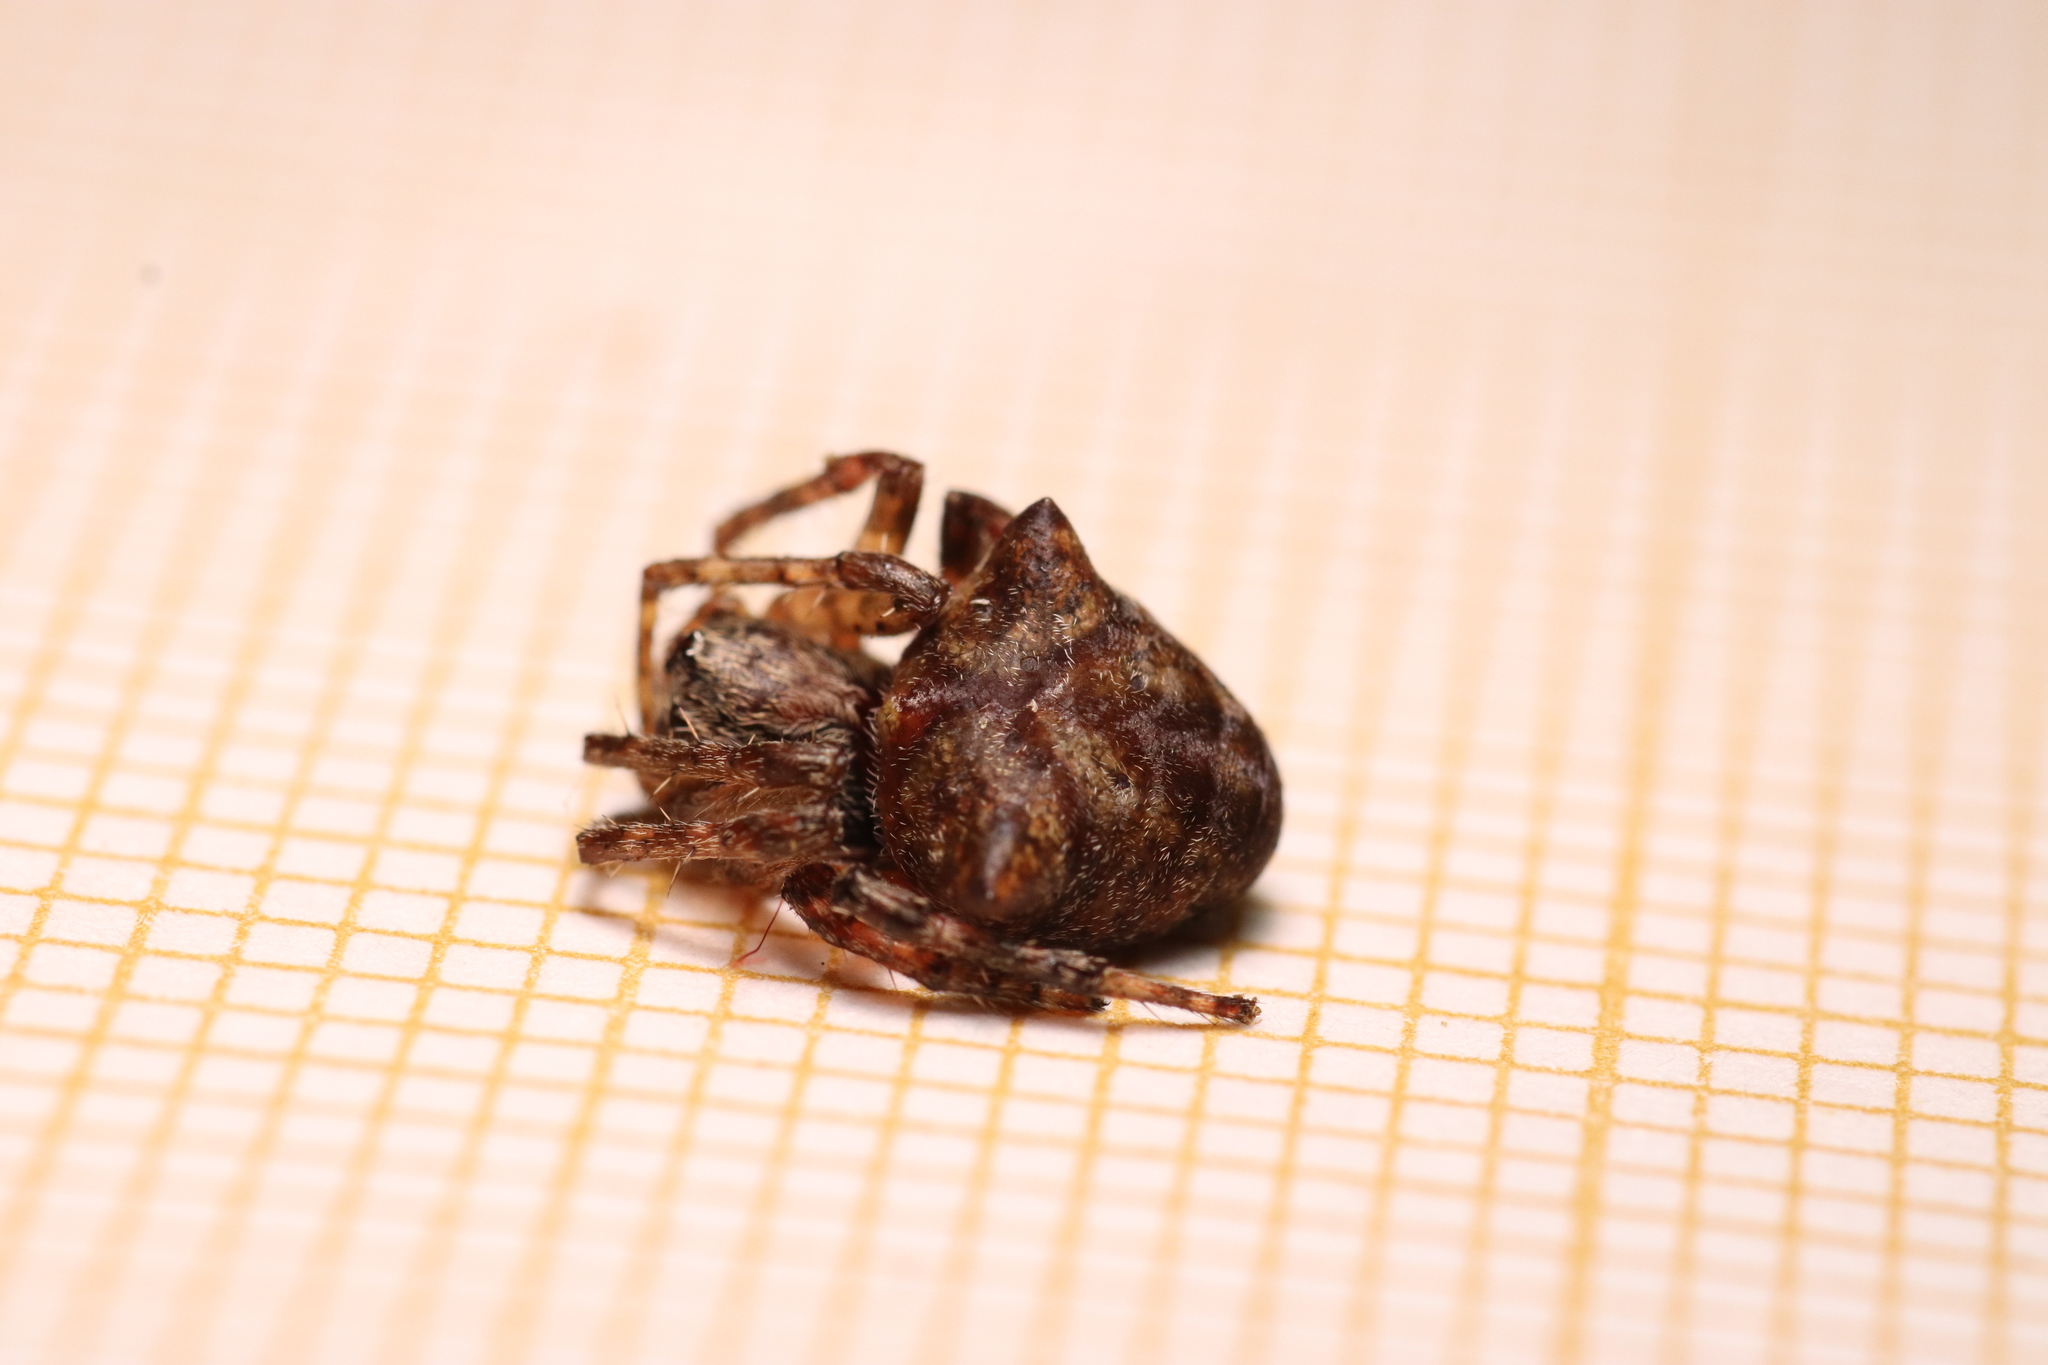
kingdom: Animalia
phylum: Arthropoda
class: Arachnida
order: Araneae
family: Araneidae
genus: Gibbaranea
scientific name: Gibbaranea bituberculata
